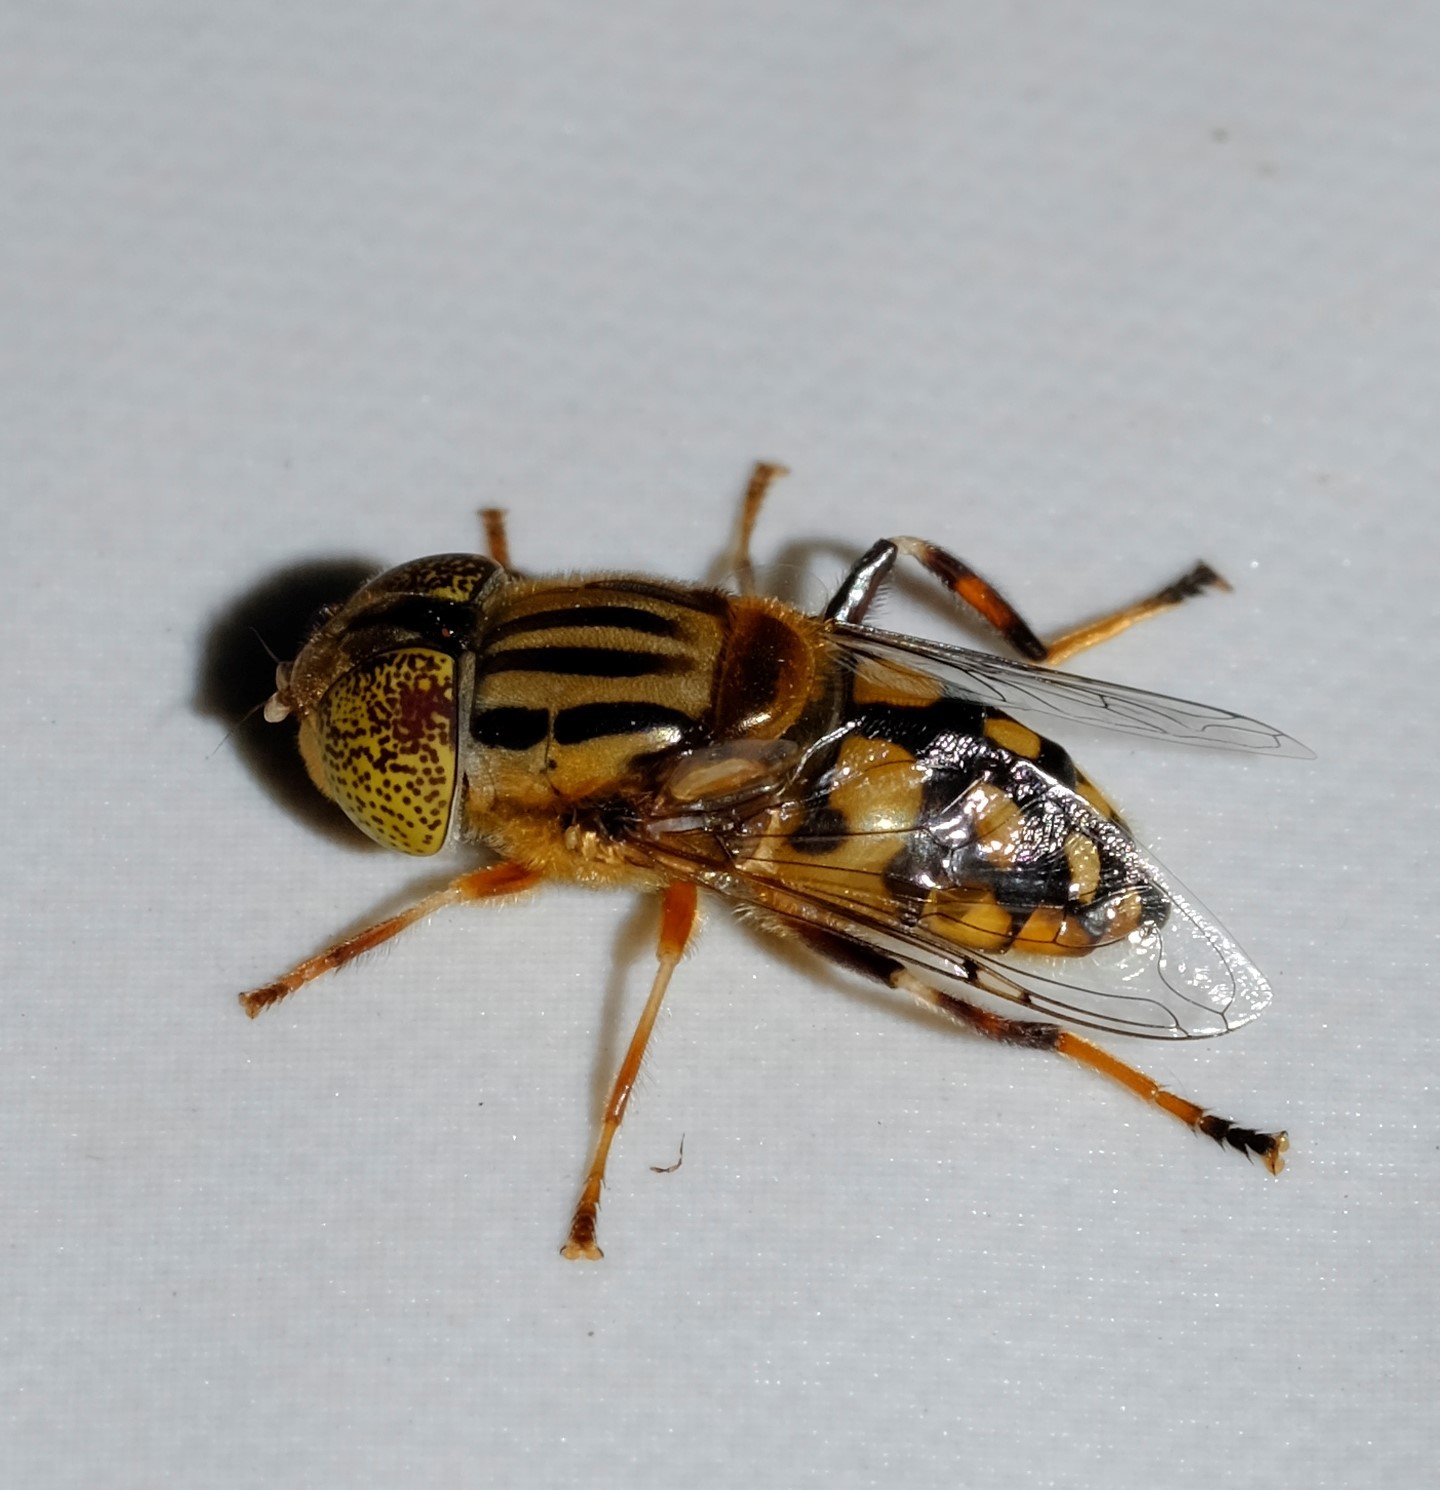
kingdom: Animalia
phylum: Arthropoda
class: Insecta
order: Diptera
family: Syrphidae
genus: Eristalinus
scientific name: Eristalinus punctulatus
